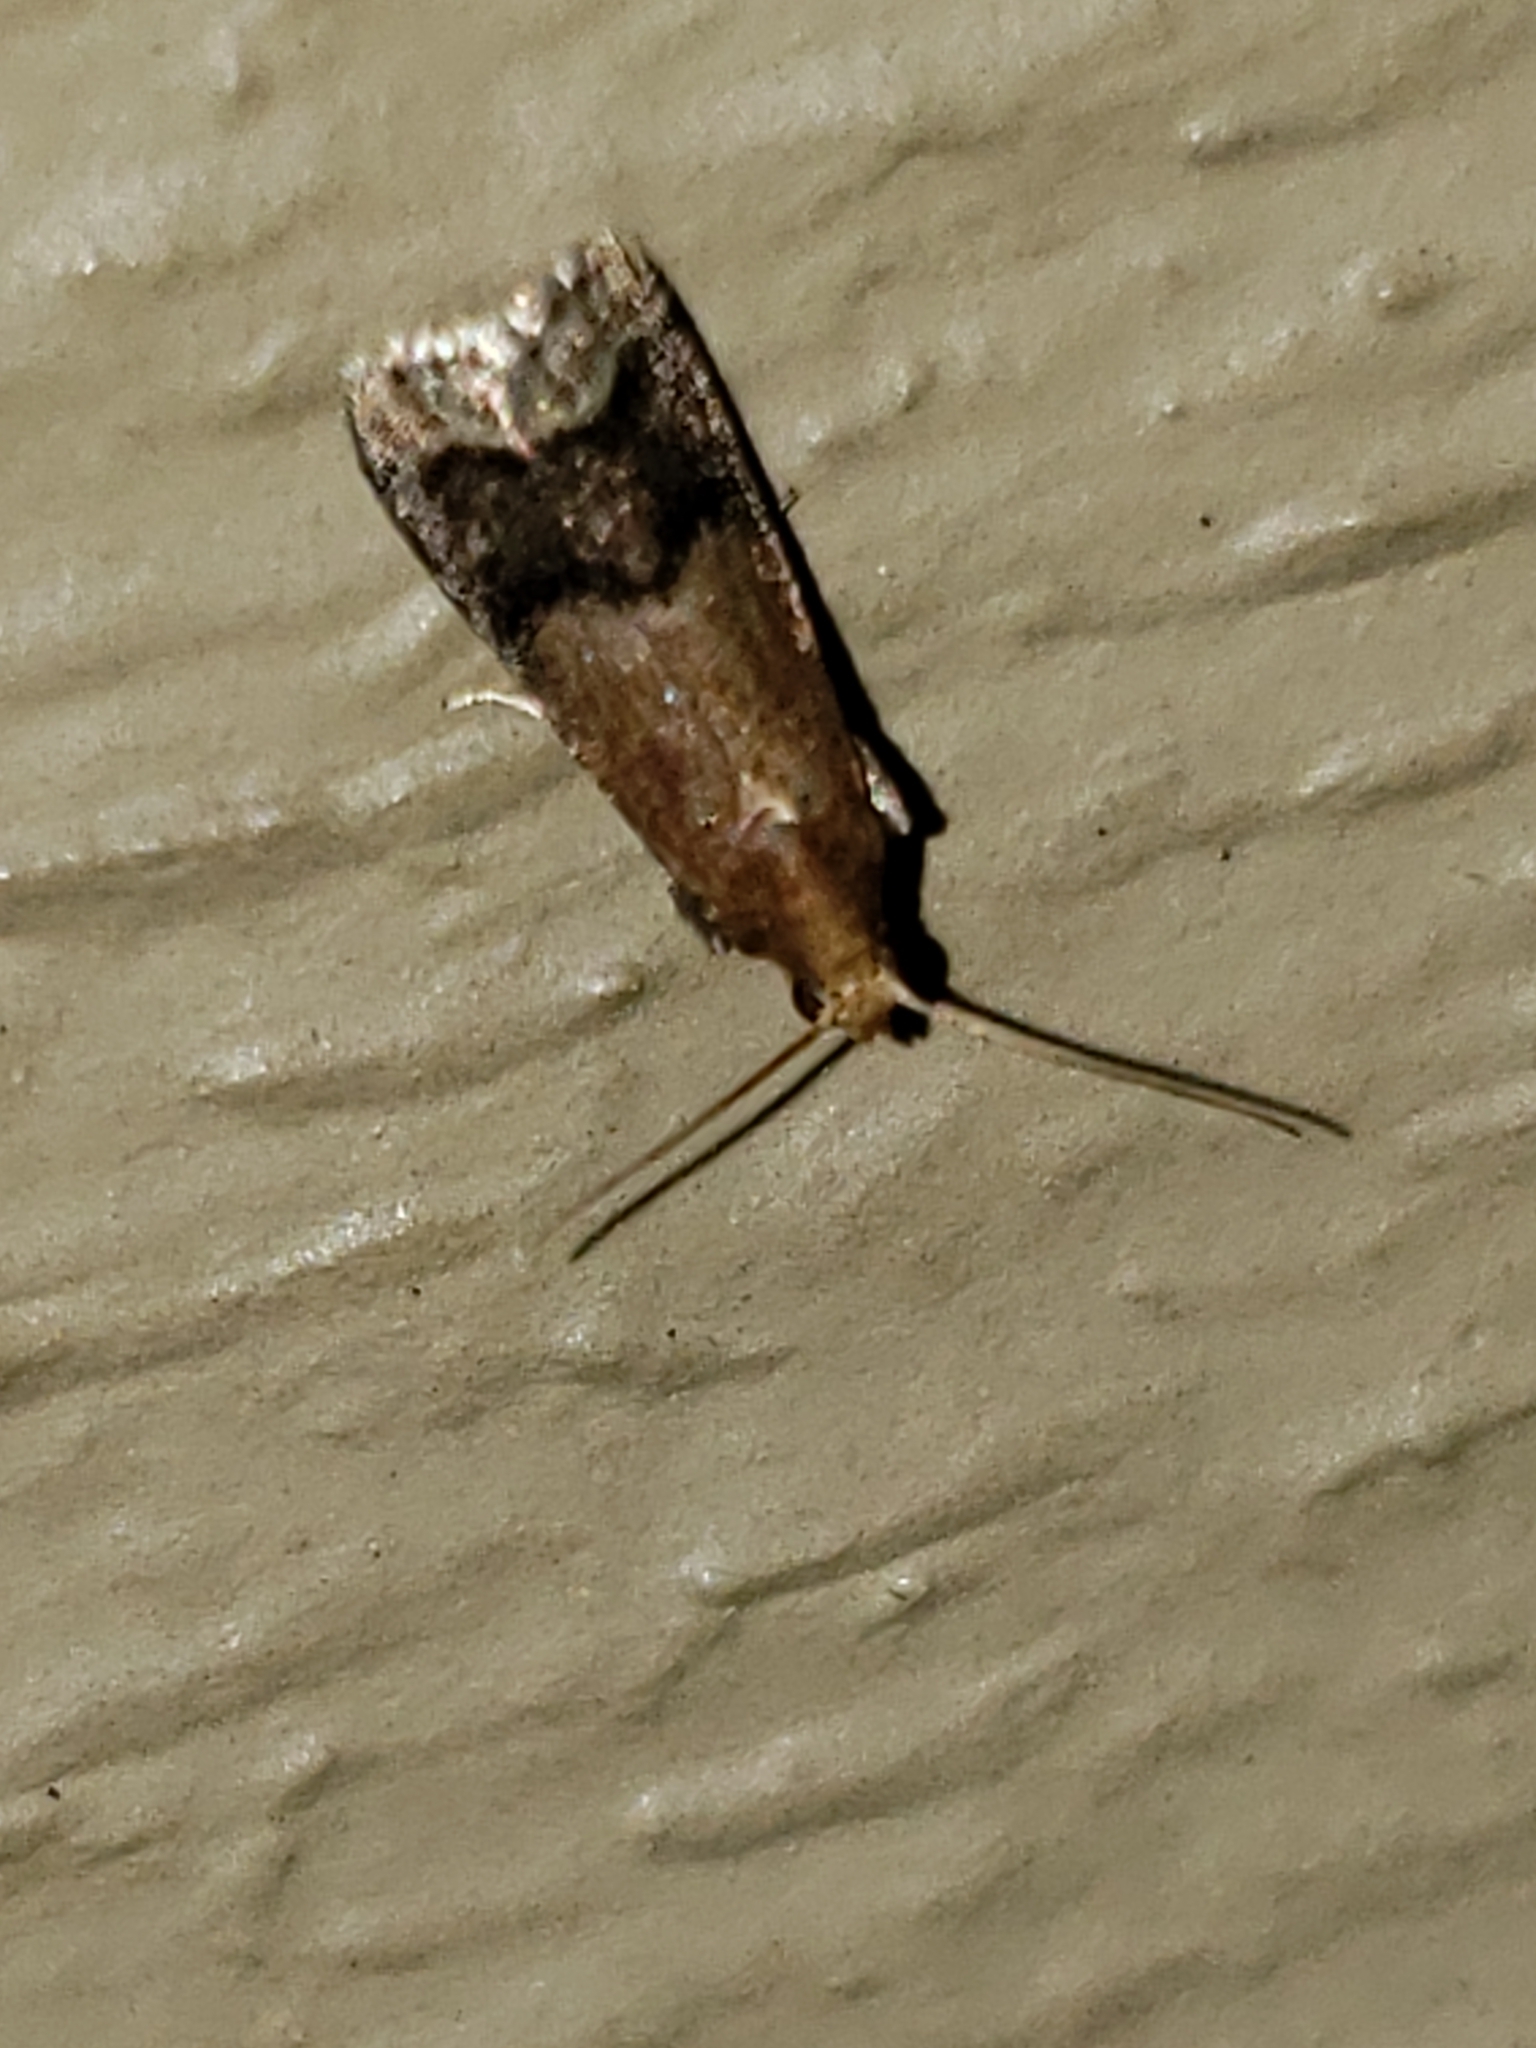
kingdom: Animalia
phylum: Arthropoda
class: Insecta
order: Lepidoptera
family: Pyralidae
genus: Eulogia
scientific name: Eulogia ochrifrontella
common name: Broad-banded eulogia moth
